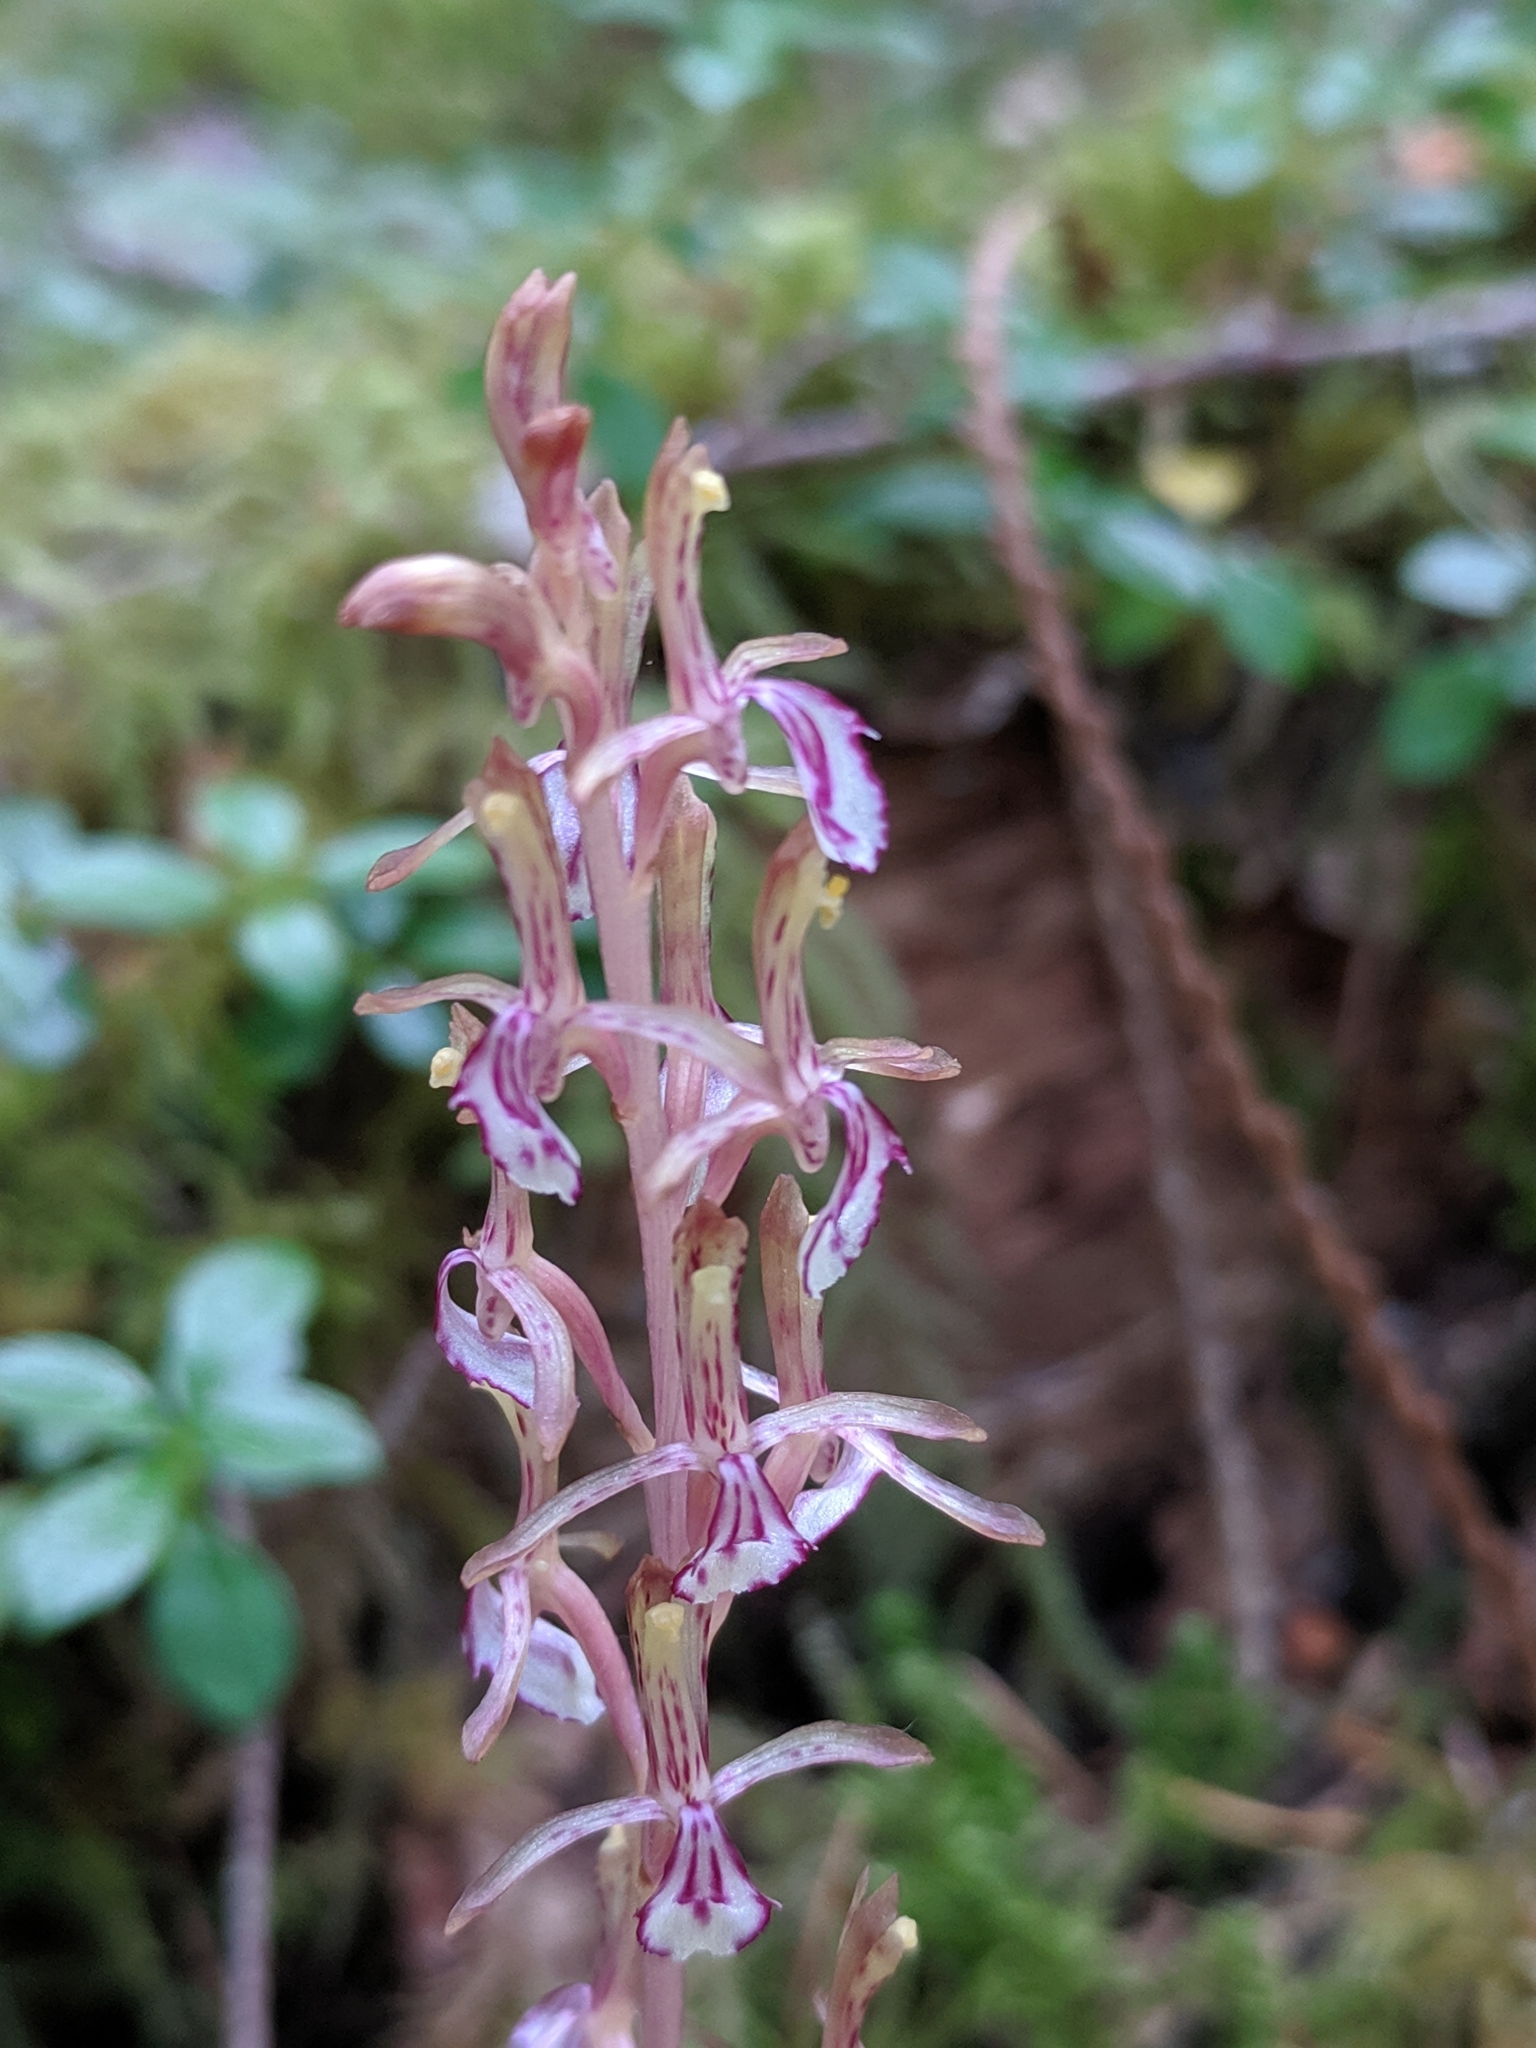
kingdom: Plantae
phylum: Tracheophyta
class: Liliopsida
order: Asparagales
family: Orchidaceae
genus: Corallorhiza
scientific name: Corallorhiza mertensiana
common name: Pacific coralroot
